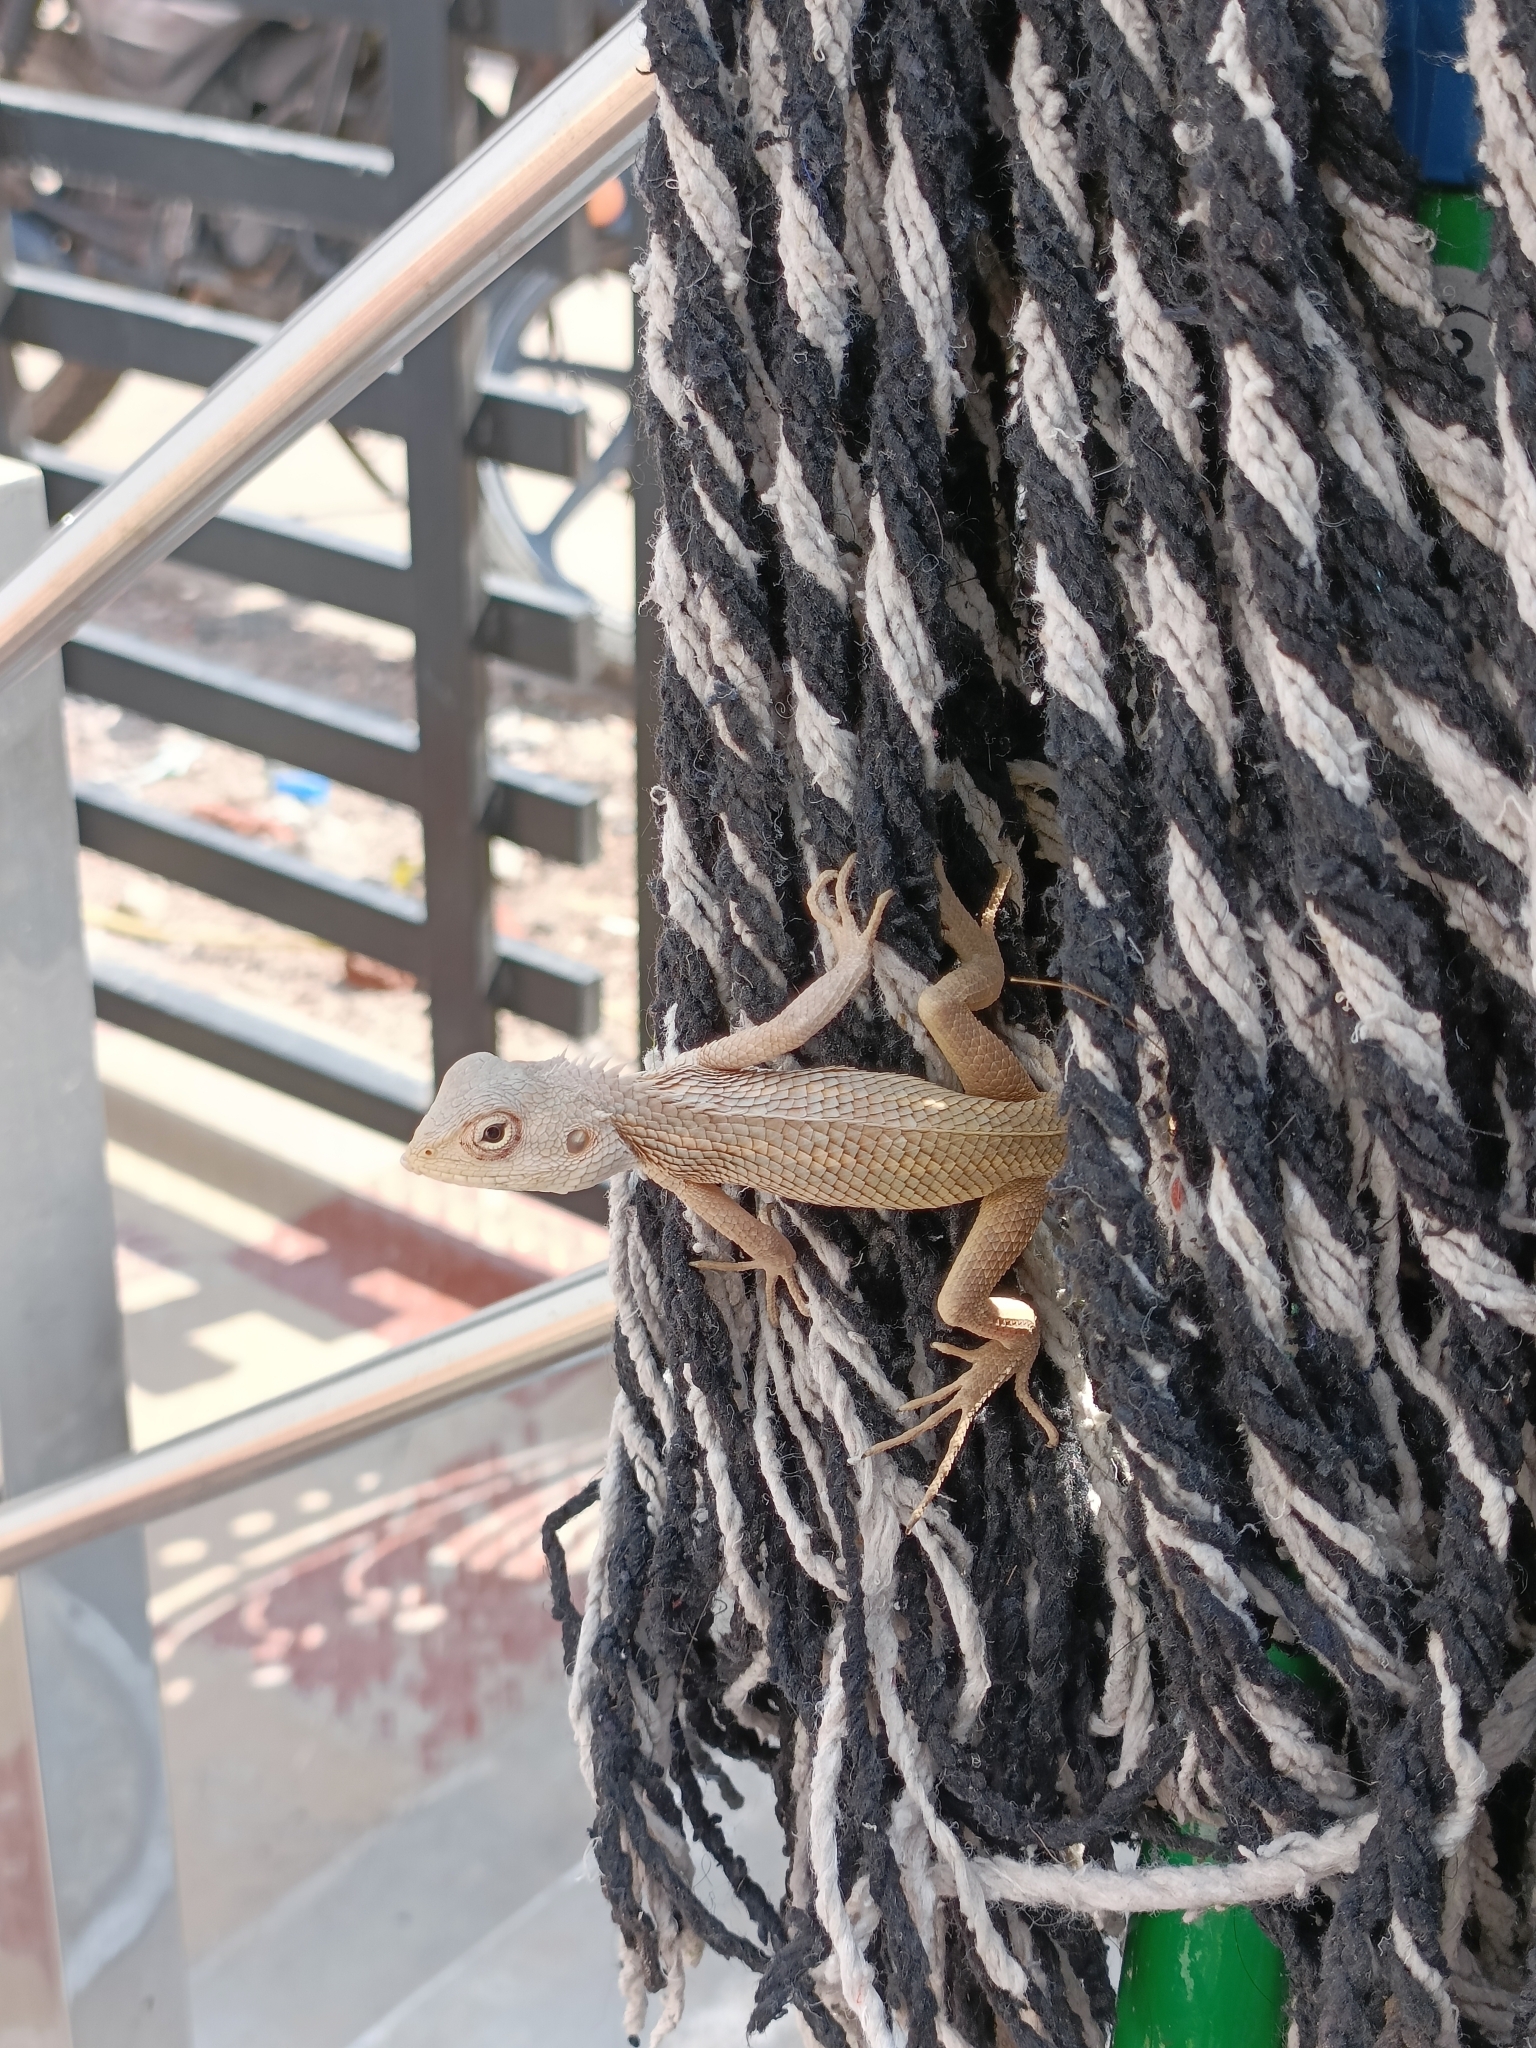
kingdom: Animalia
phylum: Chordata
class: Squamata
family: Agamidae
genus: Calotes
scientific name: Calotes versicolor
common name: Oriental garden lizard
